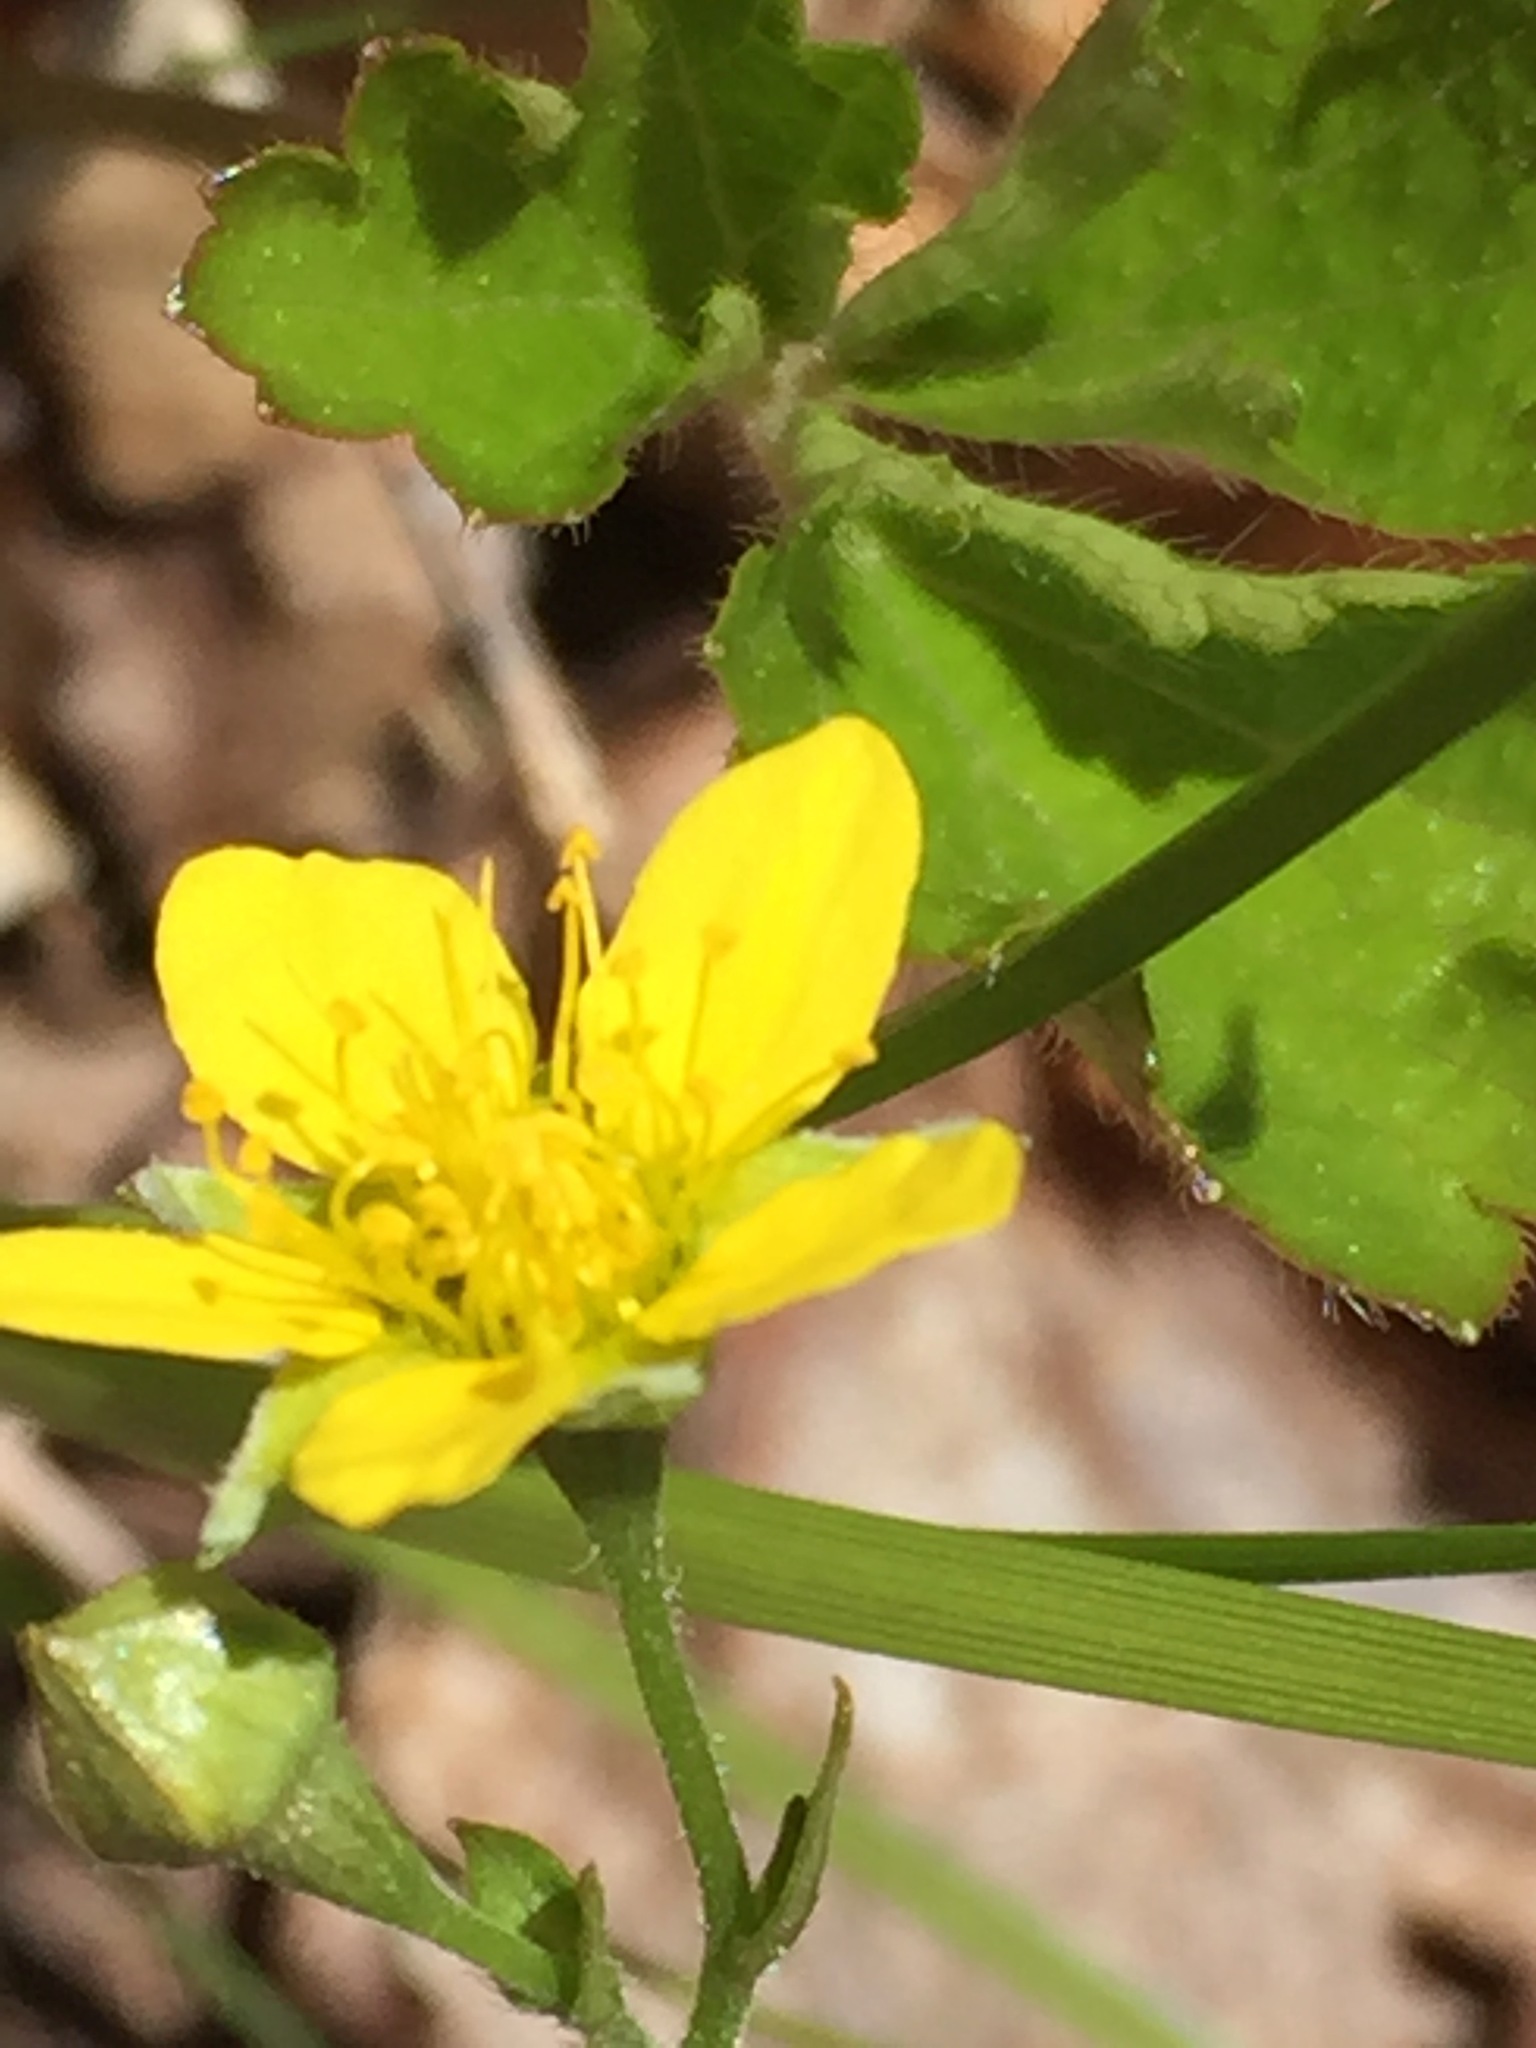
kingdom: Plantae
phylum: Tracheophyta
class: Magnoliopsida
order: Rosales
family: Rosaceae
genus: Geum
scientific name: Geum fragarioides
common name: Appalachian barren strawberry
